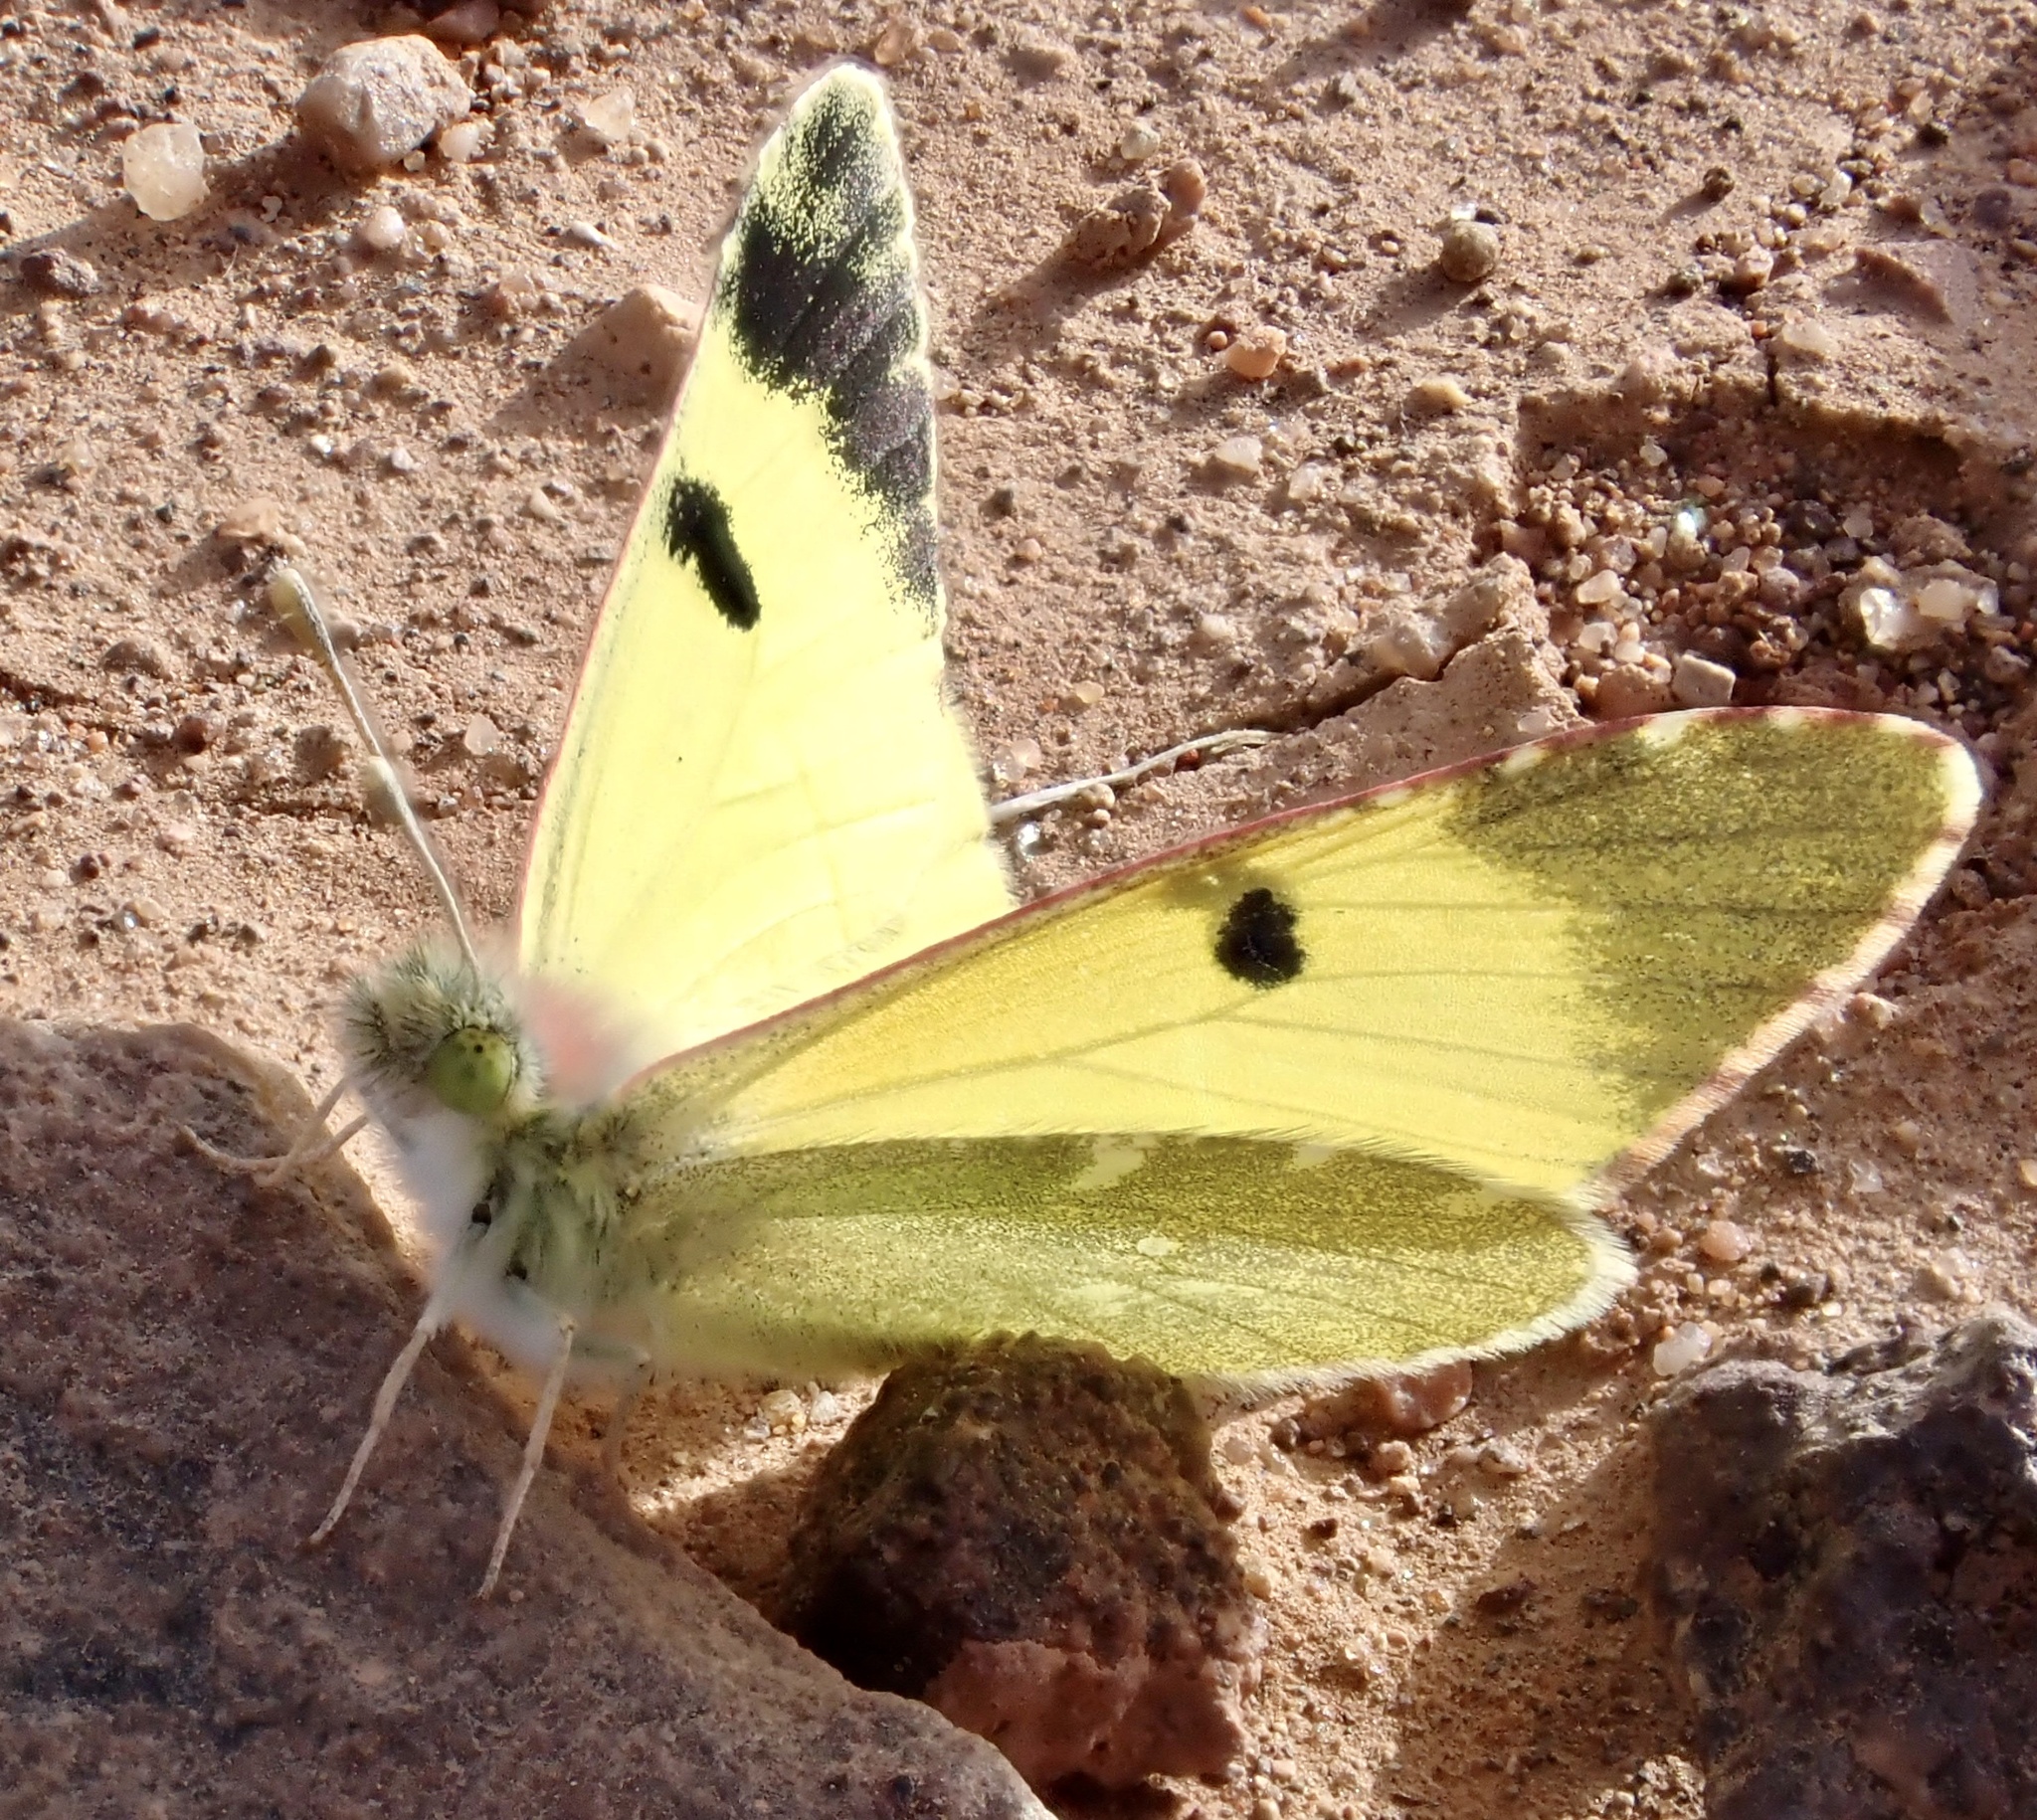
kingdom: Animalia
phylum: Arthropoda
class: Insecta
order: Lepidoptera
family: Pieridae
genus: Elphinstonia
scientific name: Elphinstonia charlonia
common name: Greenish black-tip
